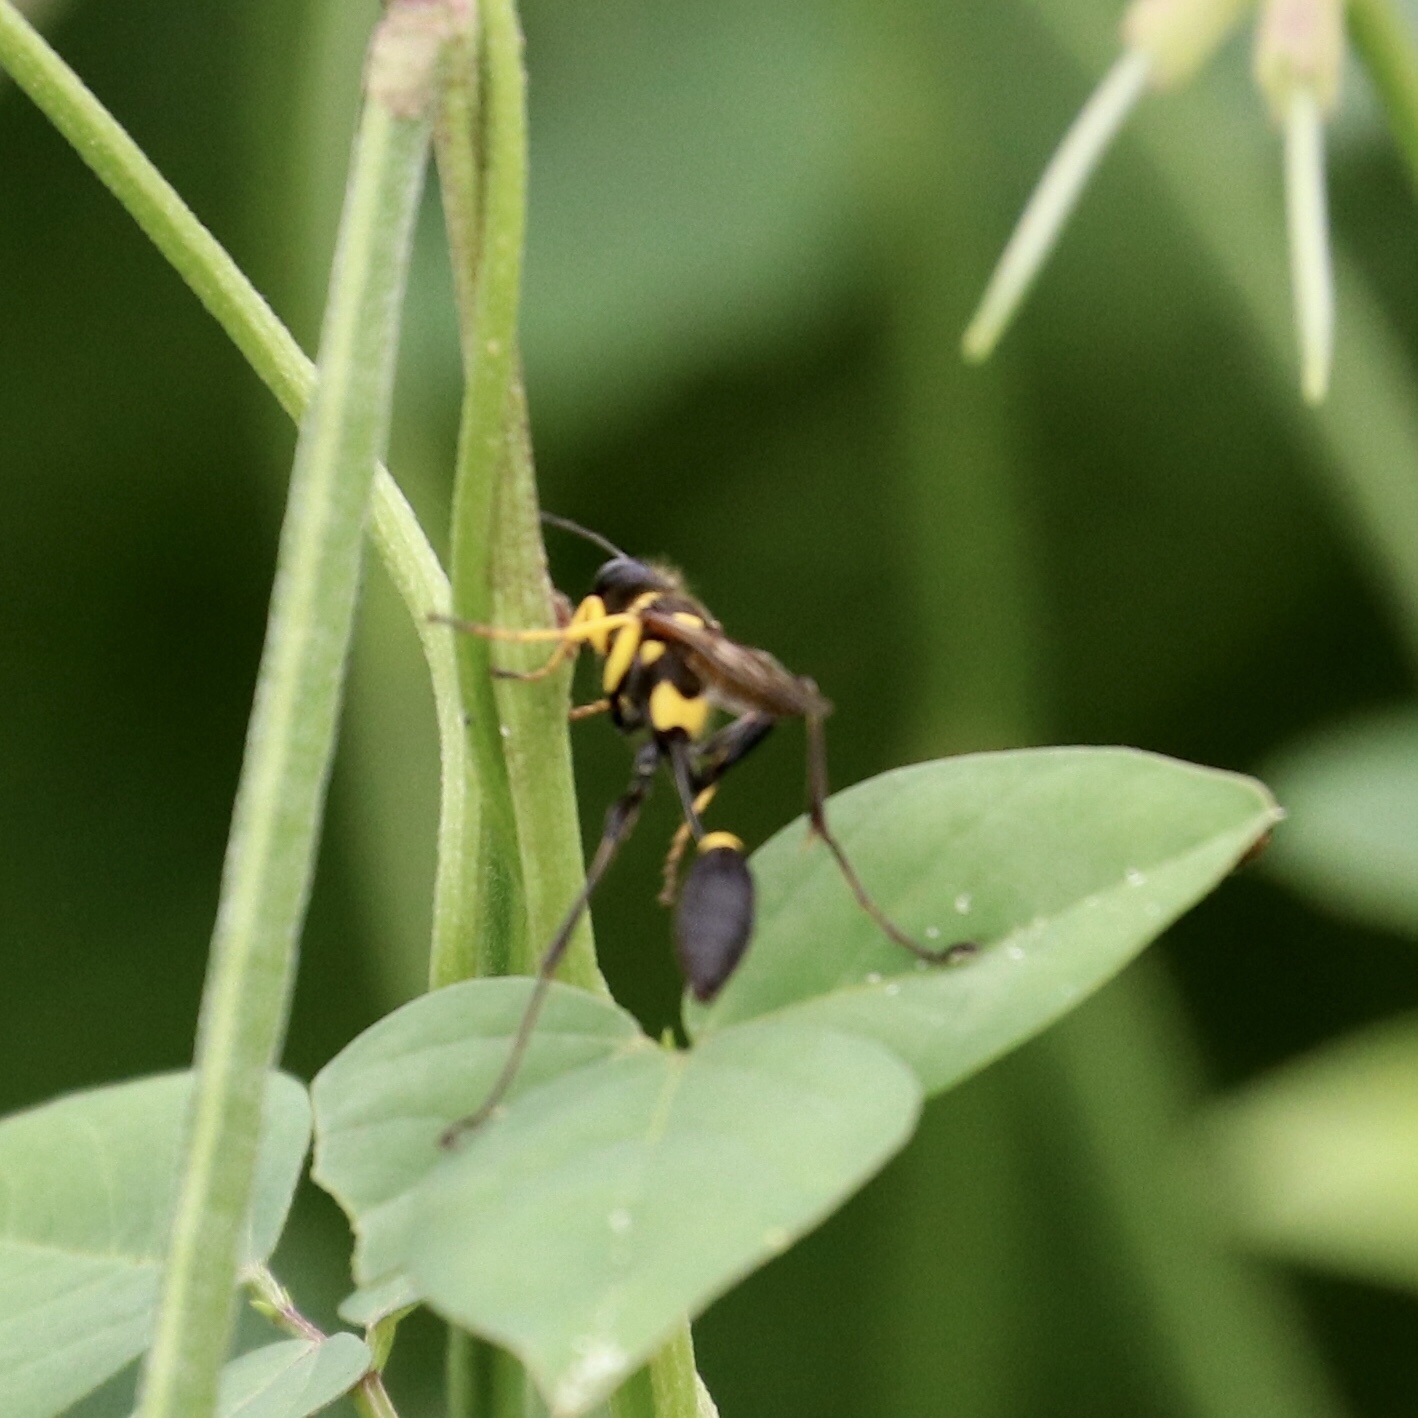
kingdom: Animalia
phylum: Arthropoda
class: Insecta
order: Hymenoptera
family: Sphecidae
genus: Sceliphron
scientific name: Sceliphron asiaticum
